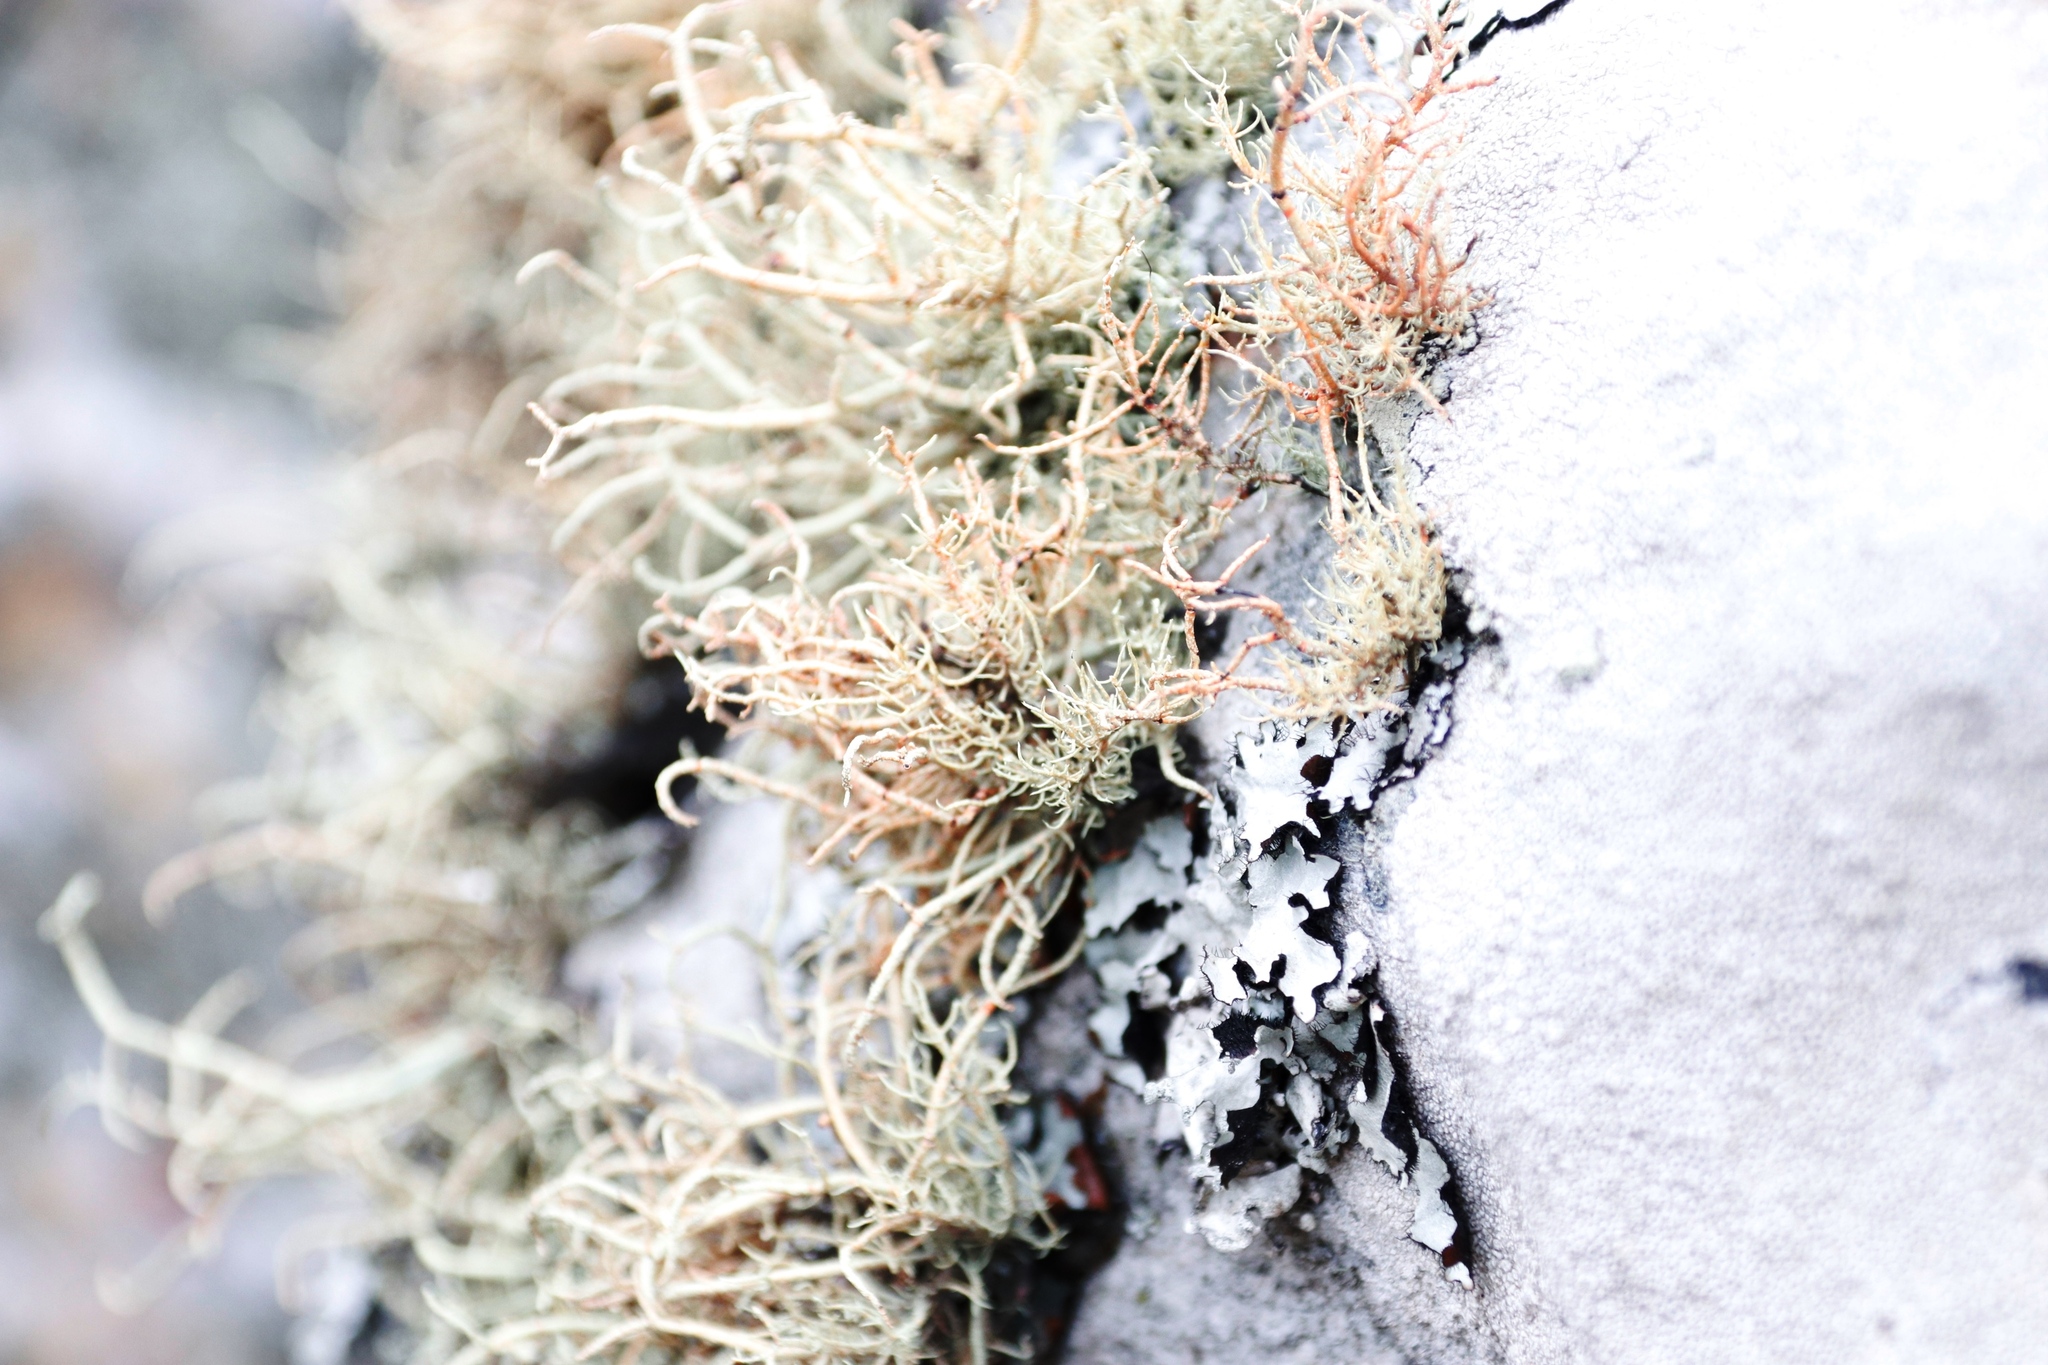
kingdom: Fungi
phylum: Ascomycota
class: Lecanoromycetes
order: Lecanorales
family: Parmeliaceae
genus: Usnea
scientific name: Usnea maculata
